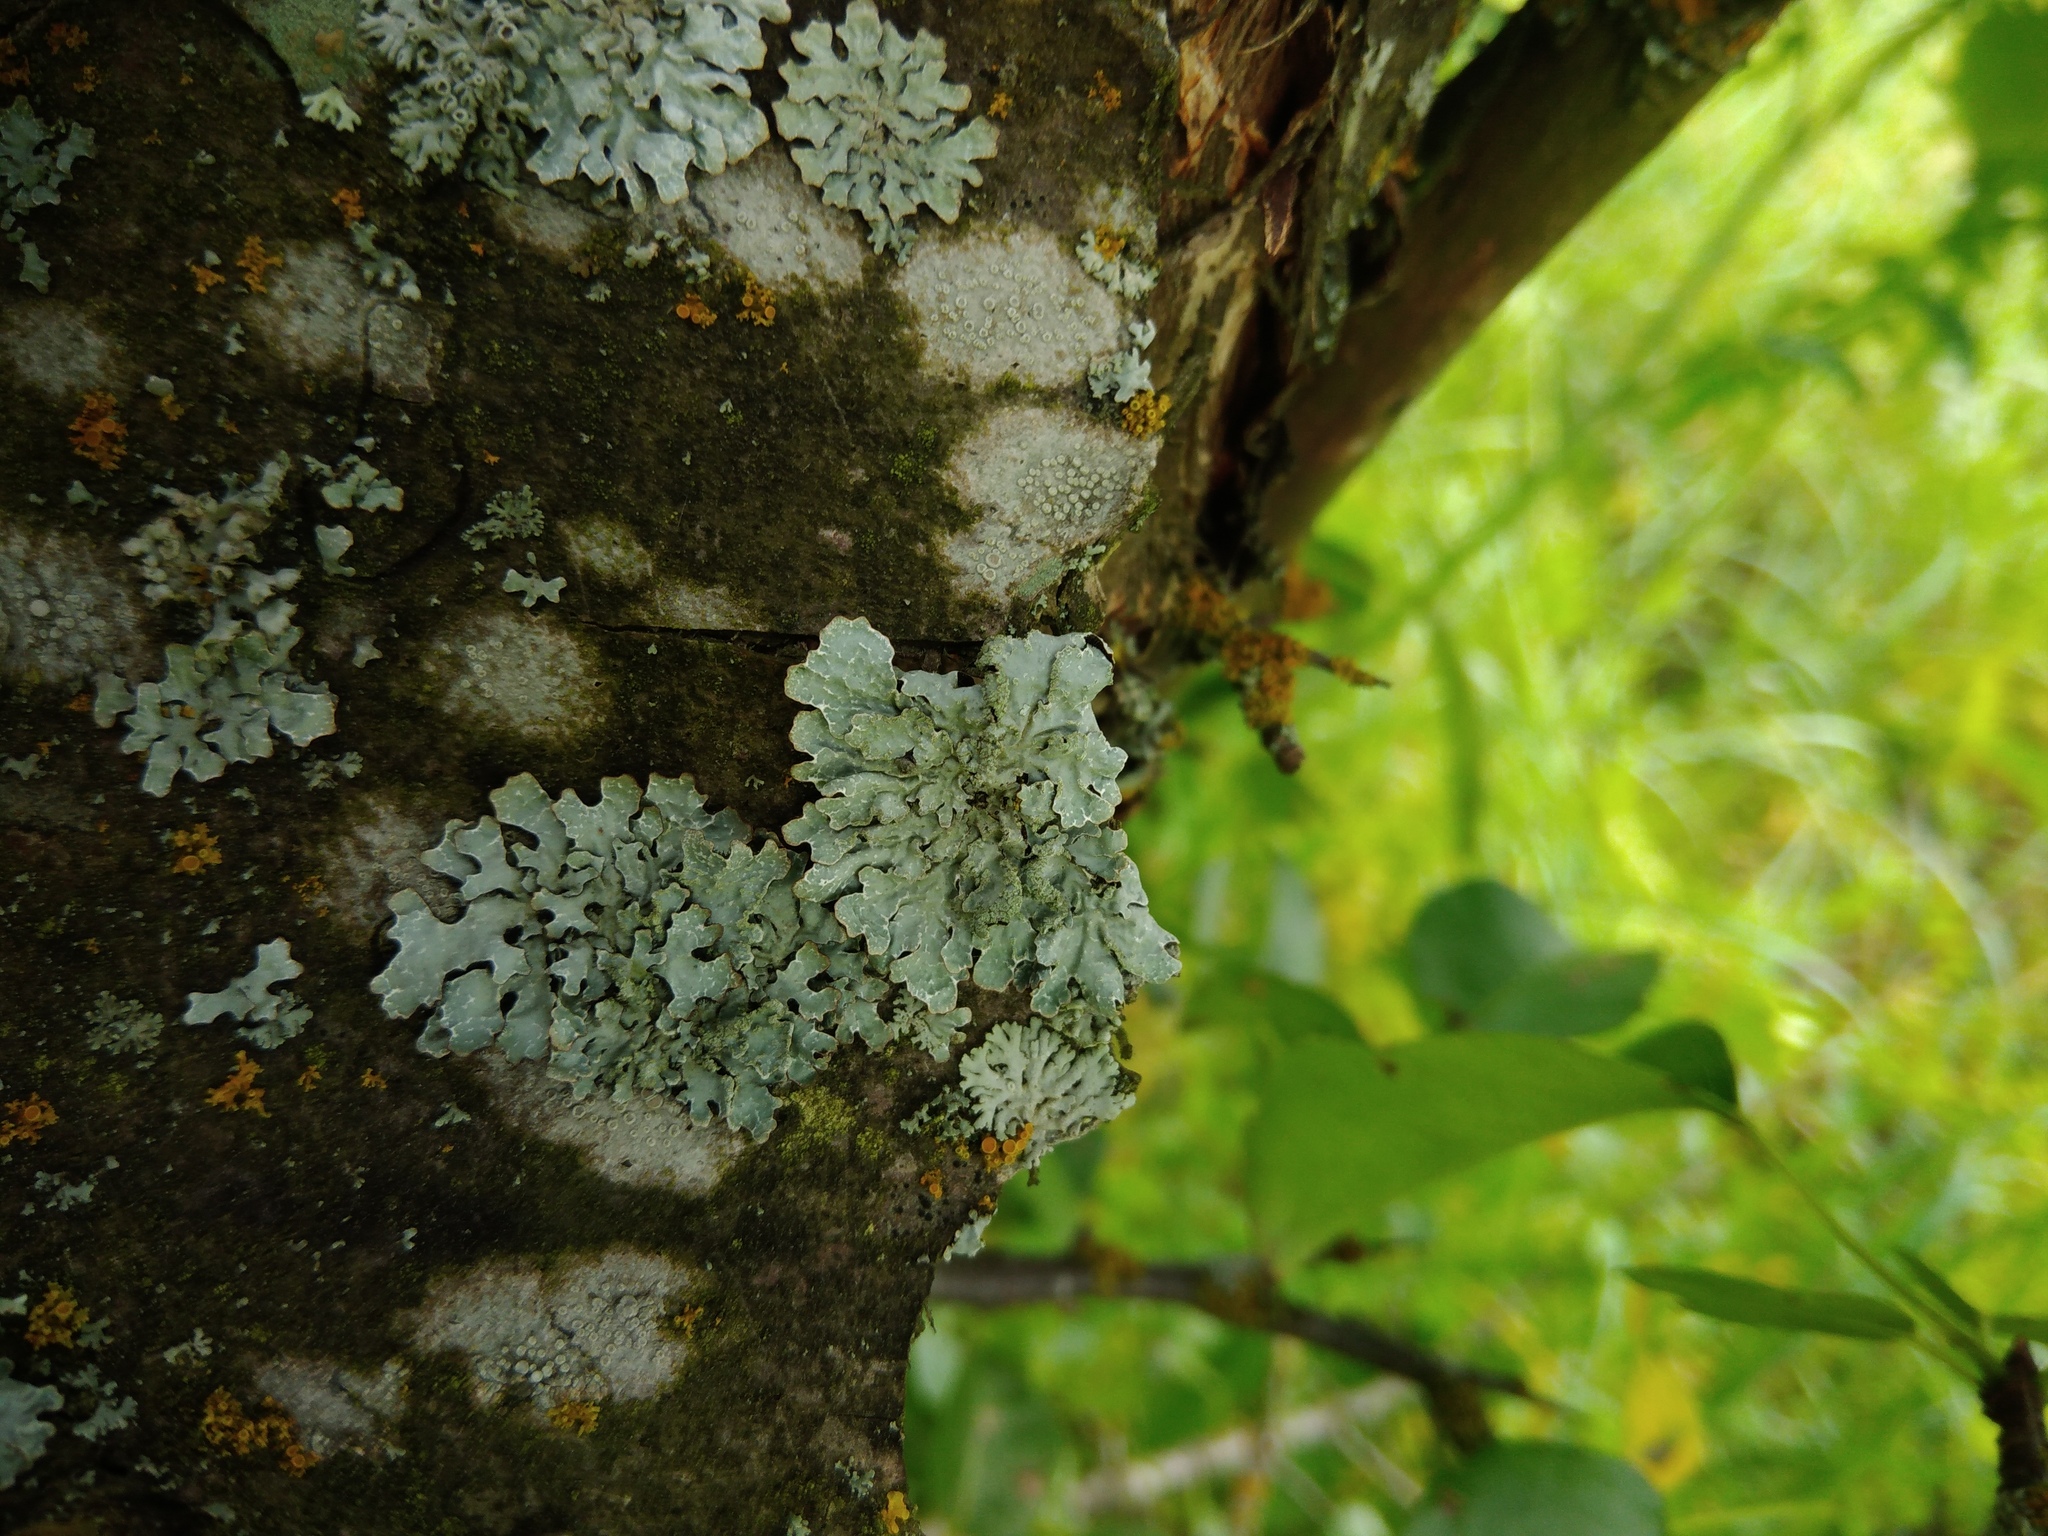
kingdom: Fungi
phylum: Ascomycota
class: Lecanoromycetes
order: Lecanorales
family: Parmeliaceae
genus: Parmelia
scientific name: Parmelia sulcata
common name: Netted shield lichen
